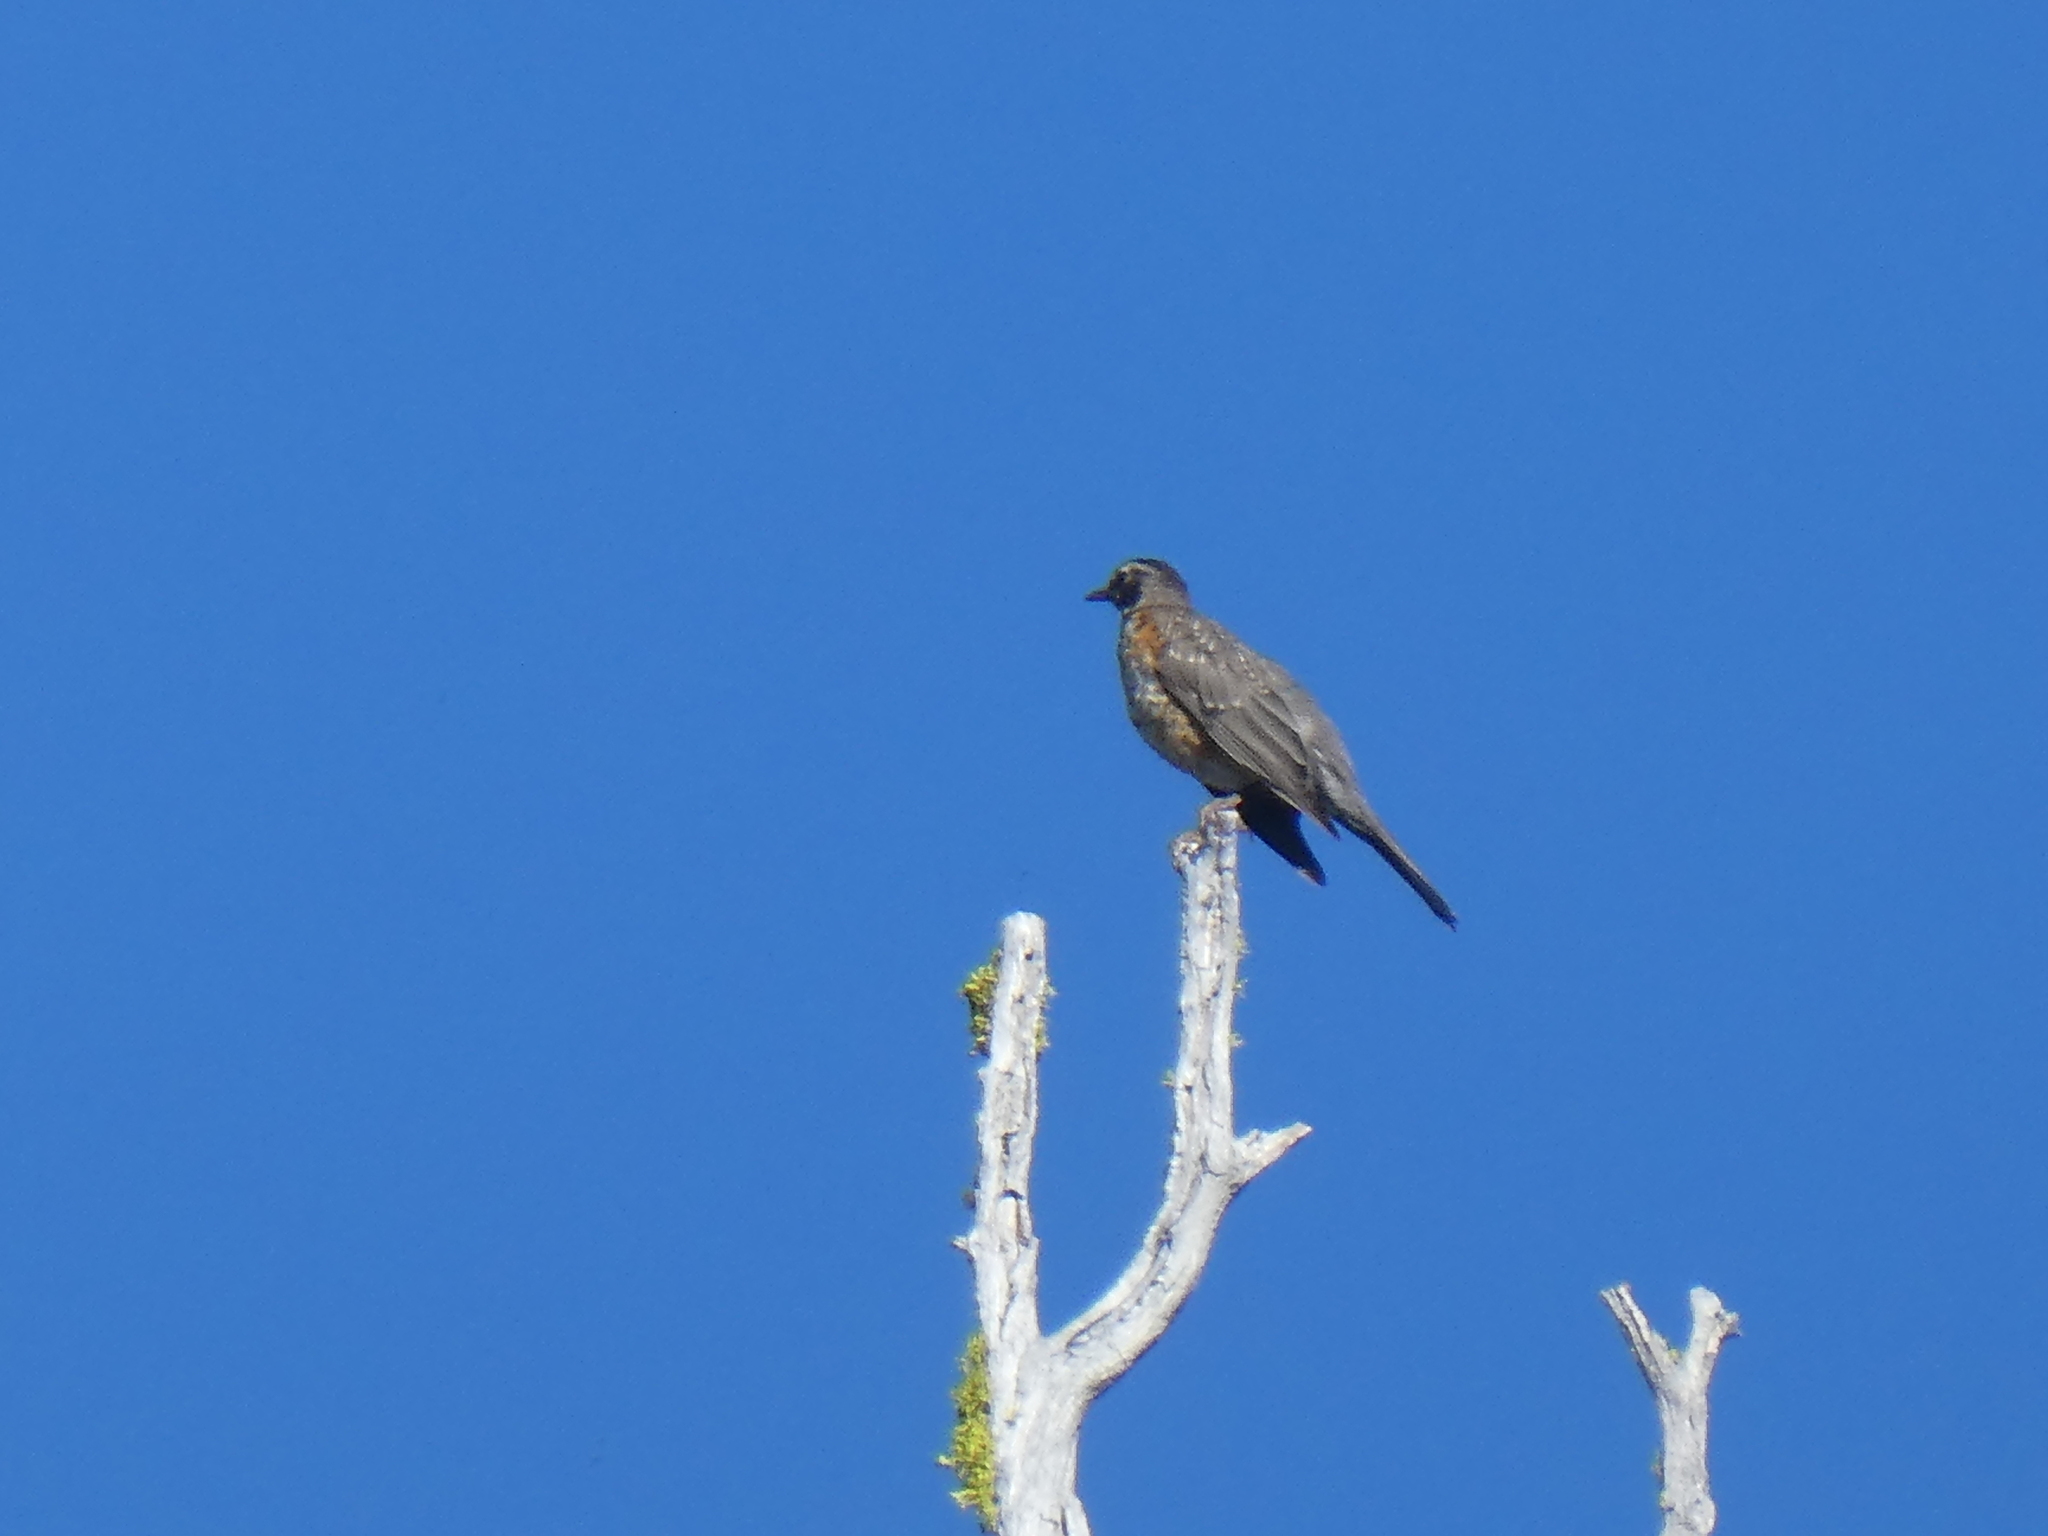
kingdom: Animalia
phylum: Chordata
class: Aves
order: Passeriformes
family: Turdidae
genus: Turdus
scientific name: Turdus migratorius
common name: American robin
